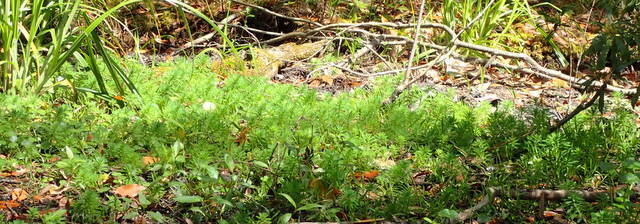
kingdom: Plantae
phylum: Tracheophyta
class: Magnoliopsida
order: Saxifragales
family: Haloragaceae
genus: Myriophyllum
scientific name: Myriophyllum aquaticum
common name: Parrot's feather
